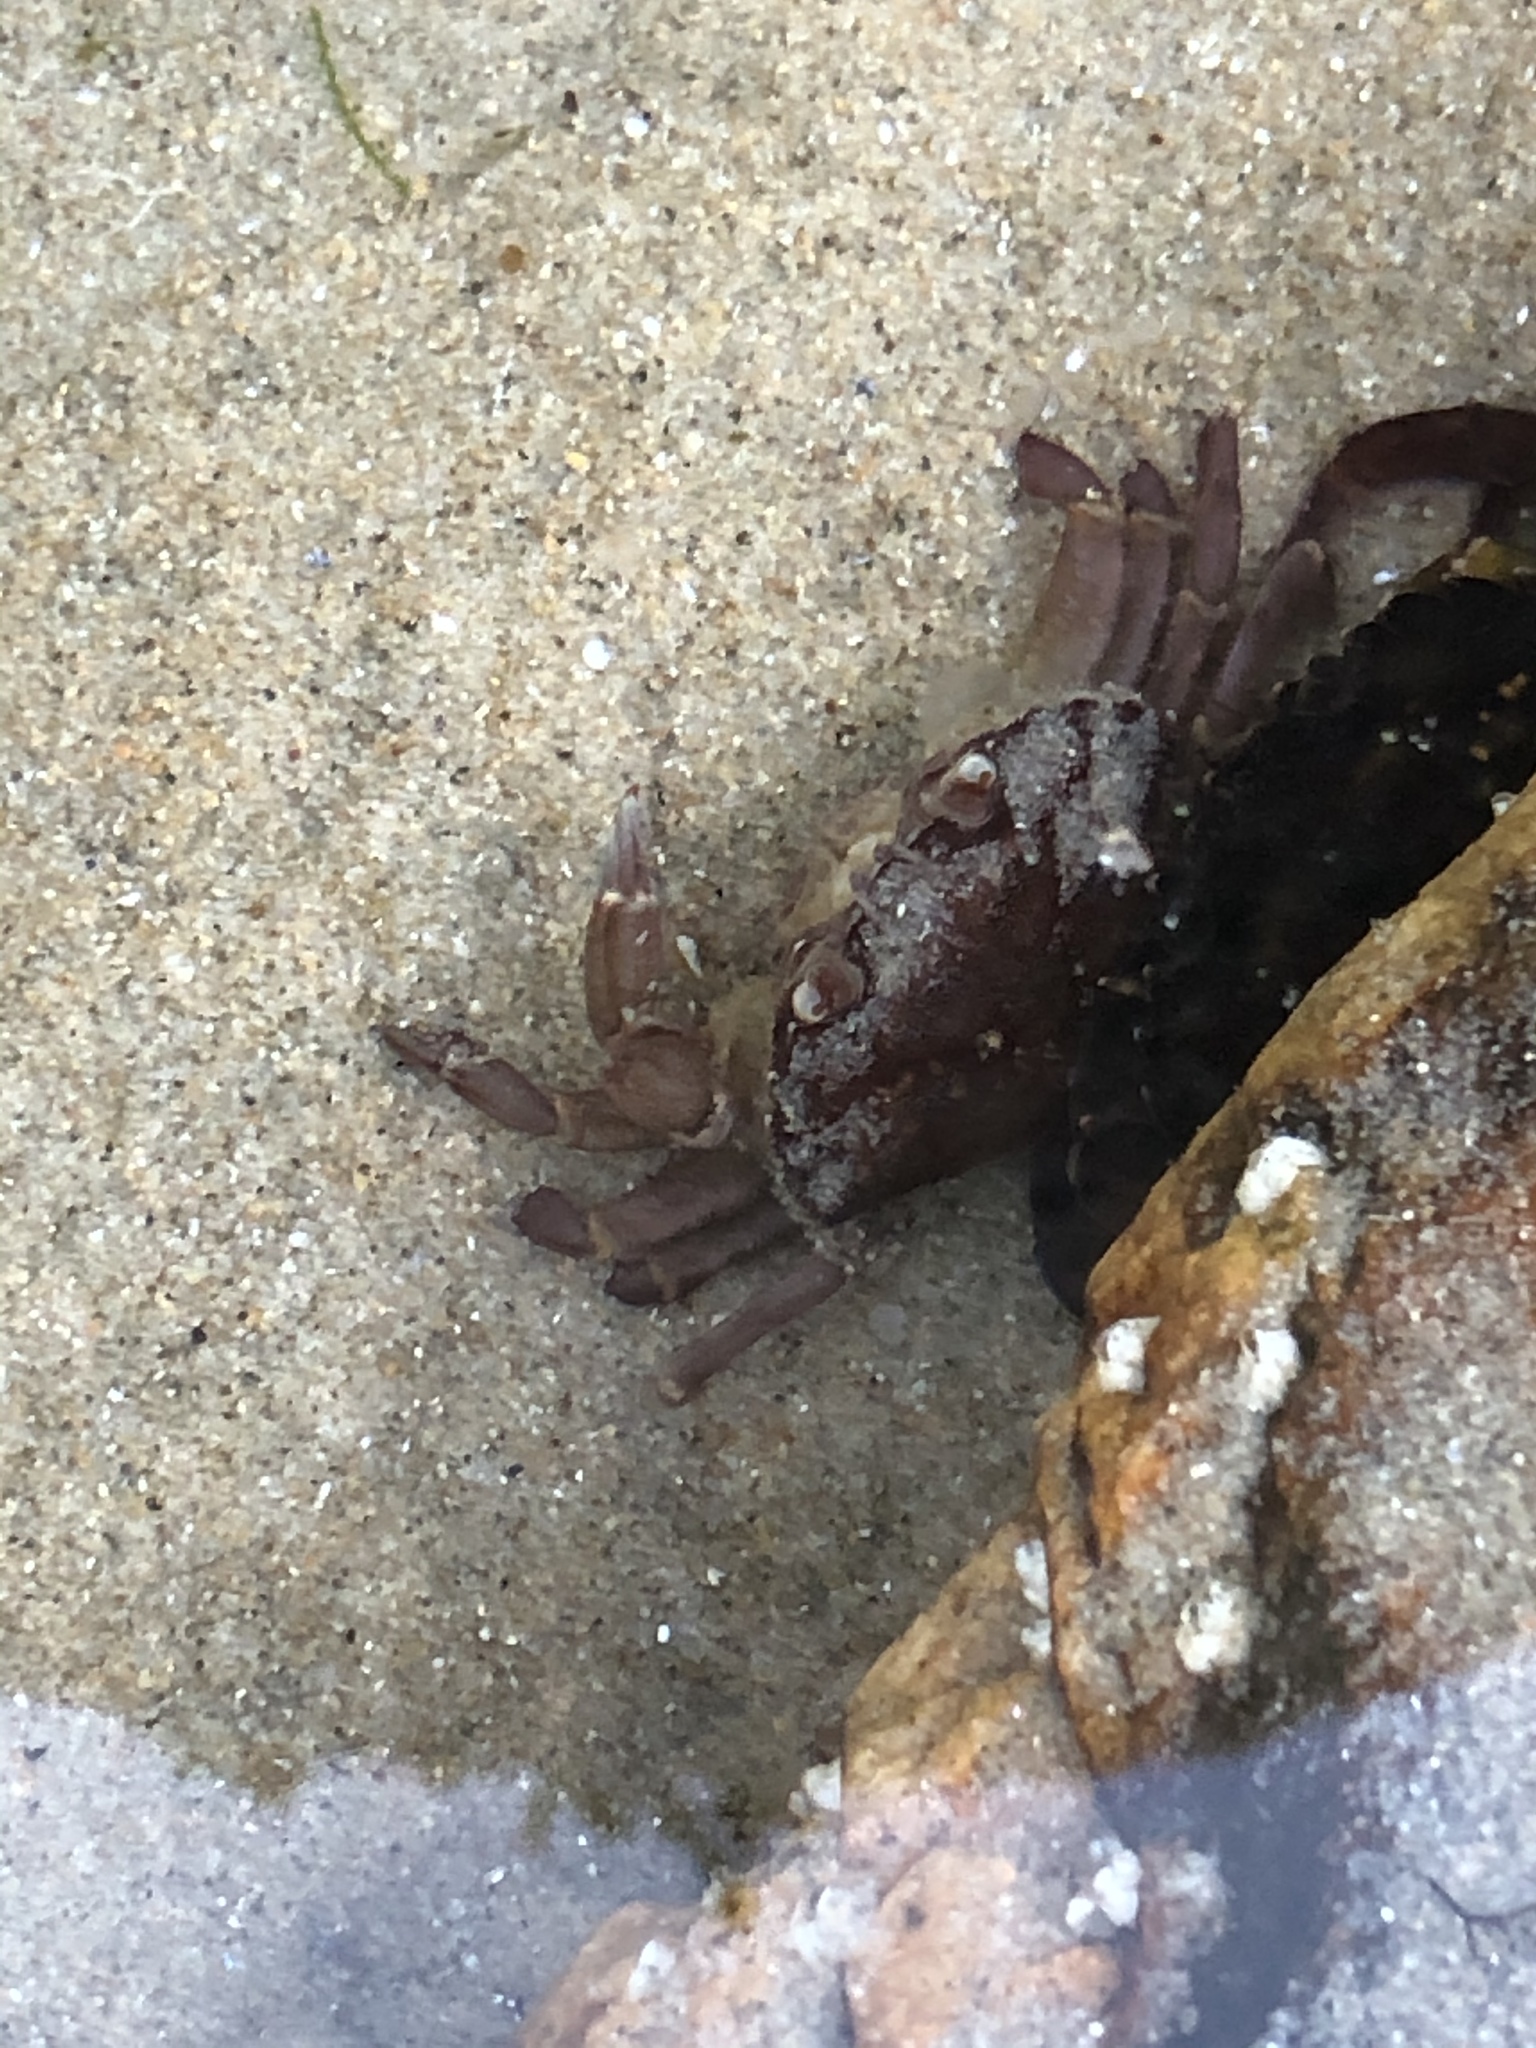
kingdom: Animalia
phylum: Arthropoda
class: Malacostraca
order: Decapoda
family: Carcinidae
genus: Carcinus
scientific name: Carcinus maenas
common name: European green crab
